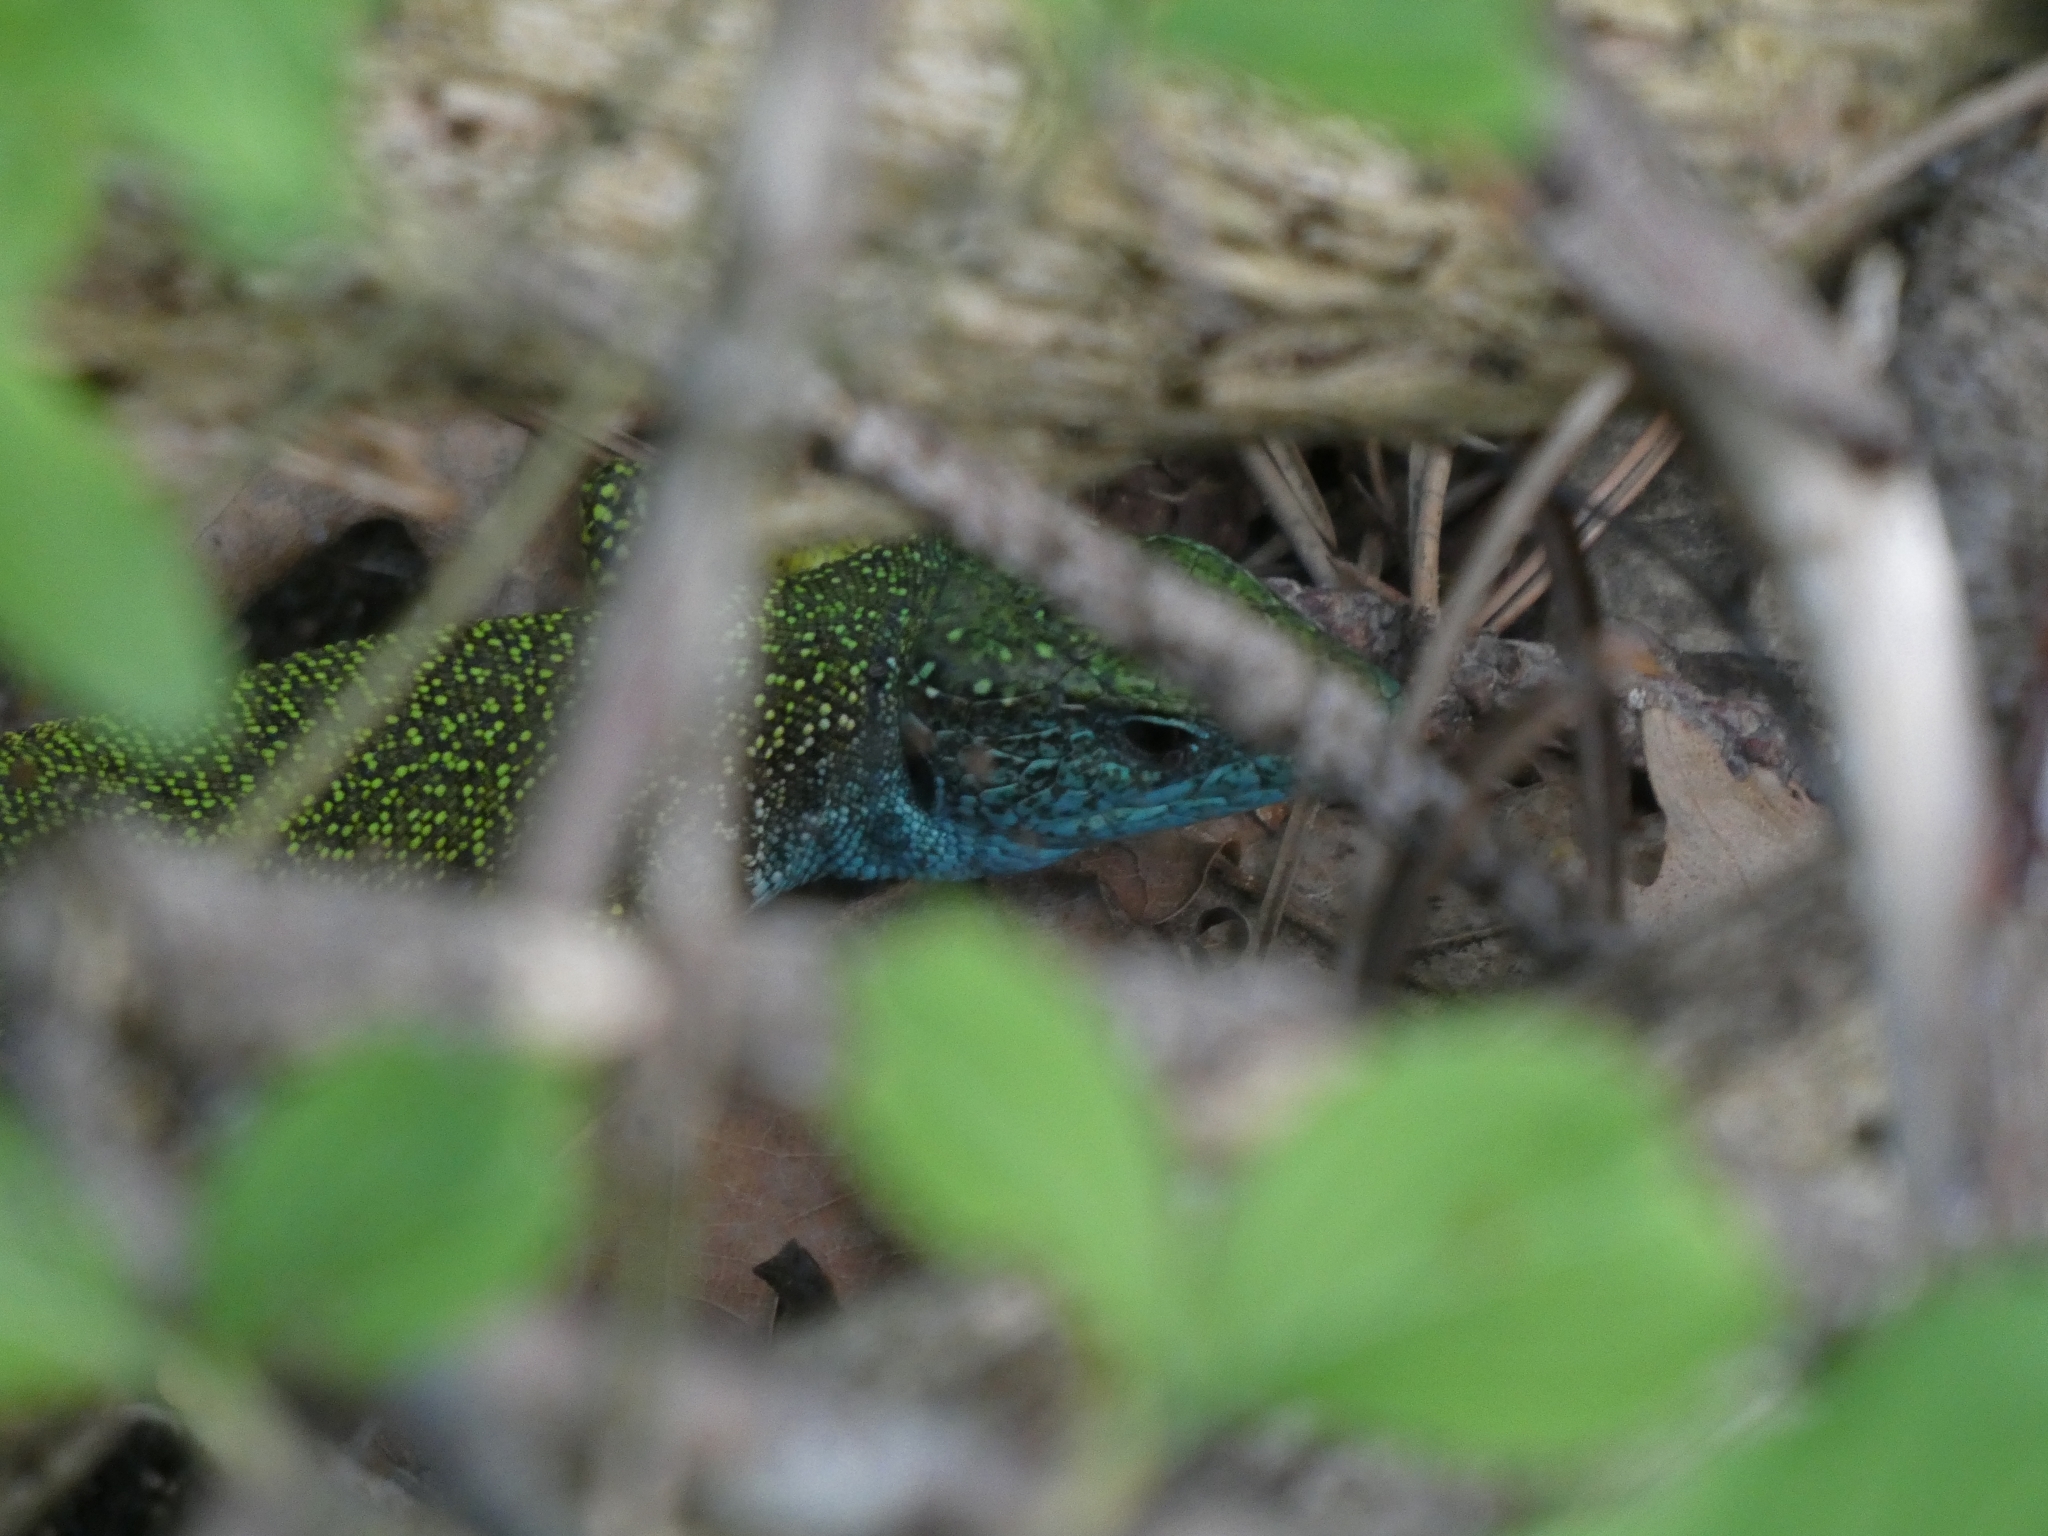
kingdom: Animalia
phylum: Chordata
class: Squamata
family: Lacertidae
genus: Lacerta
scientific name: Lacerta viridis
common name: European green lizard
